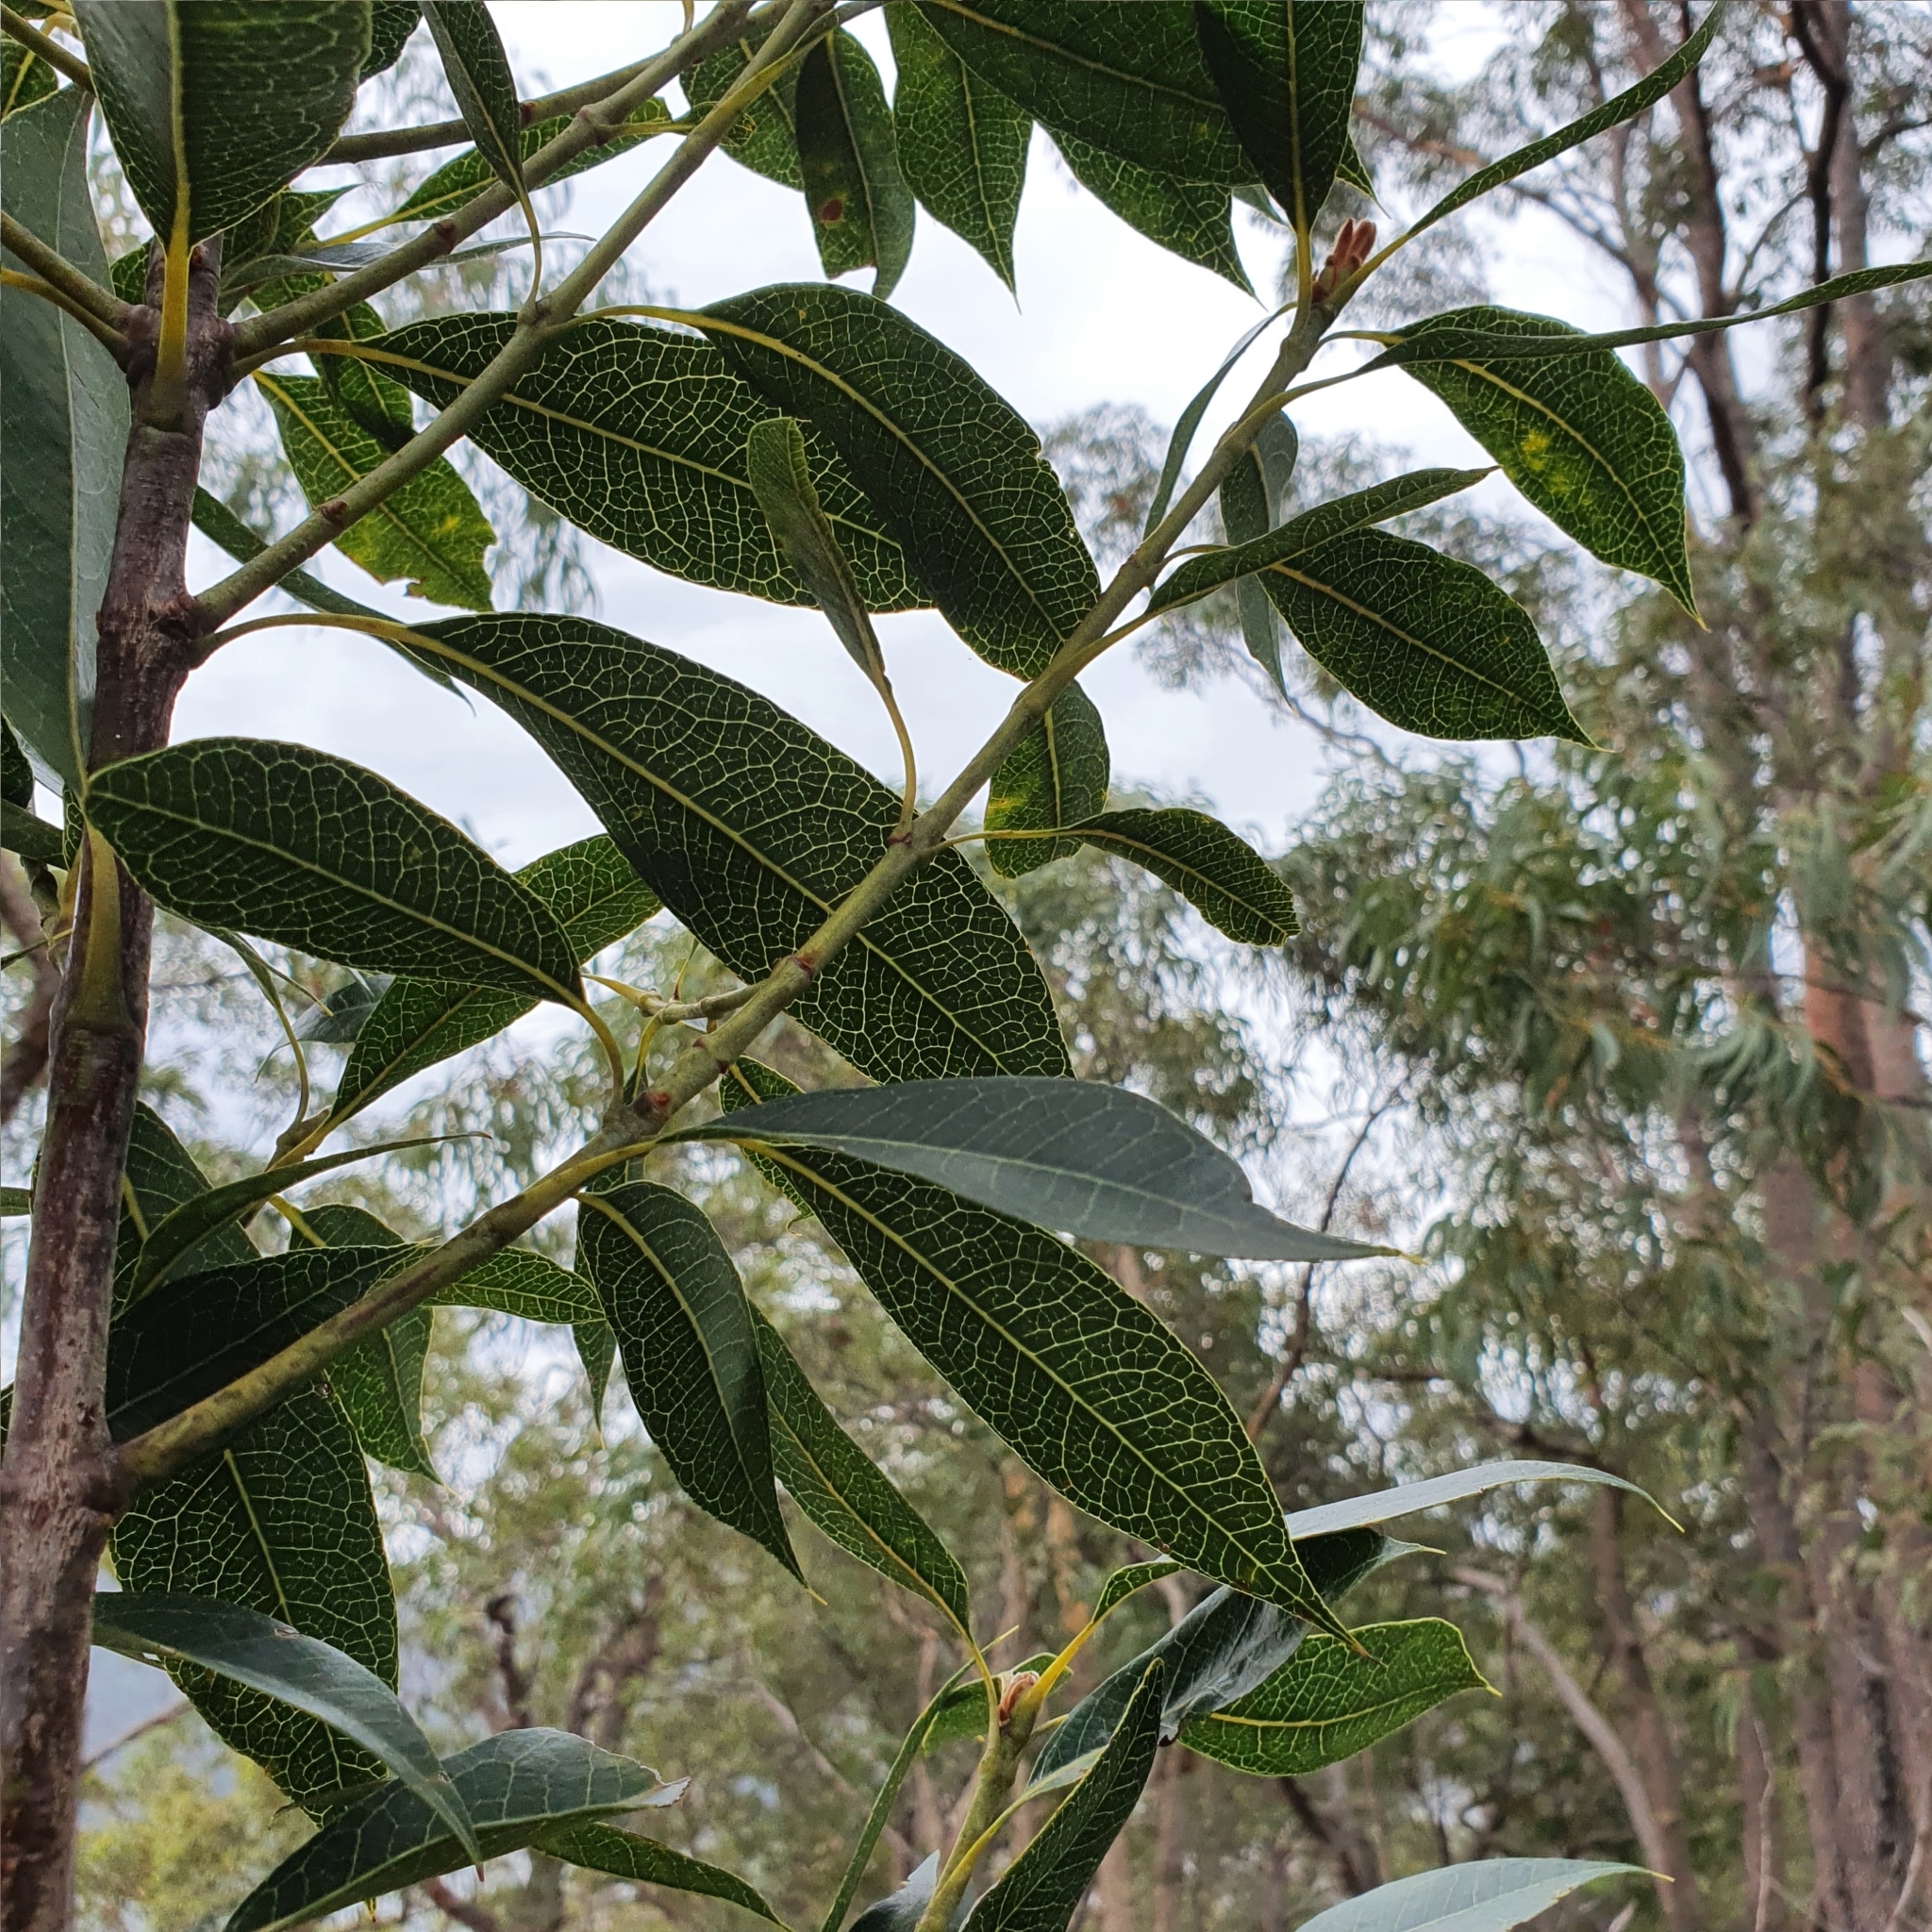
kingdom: Plantae
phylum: Tracheophyta
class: Magnoliopsida
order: Proteales
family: Proteaceae
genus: Xylomelum
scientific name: Xylomelum pyriforme
